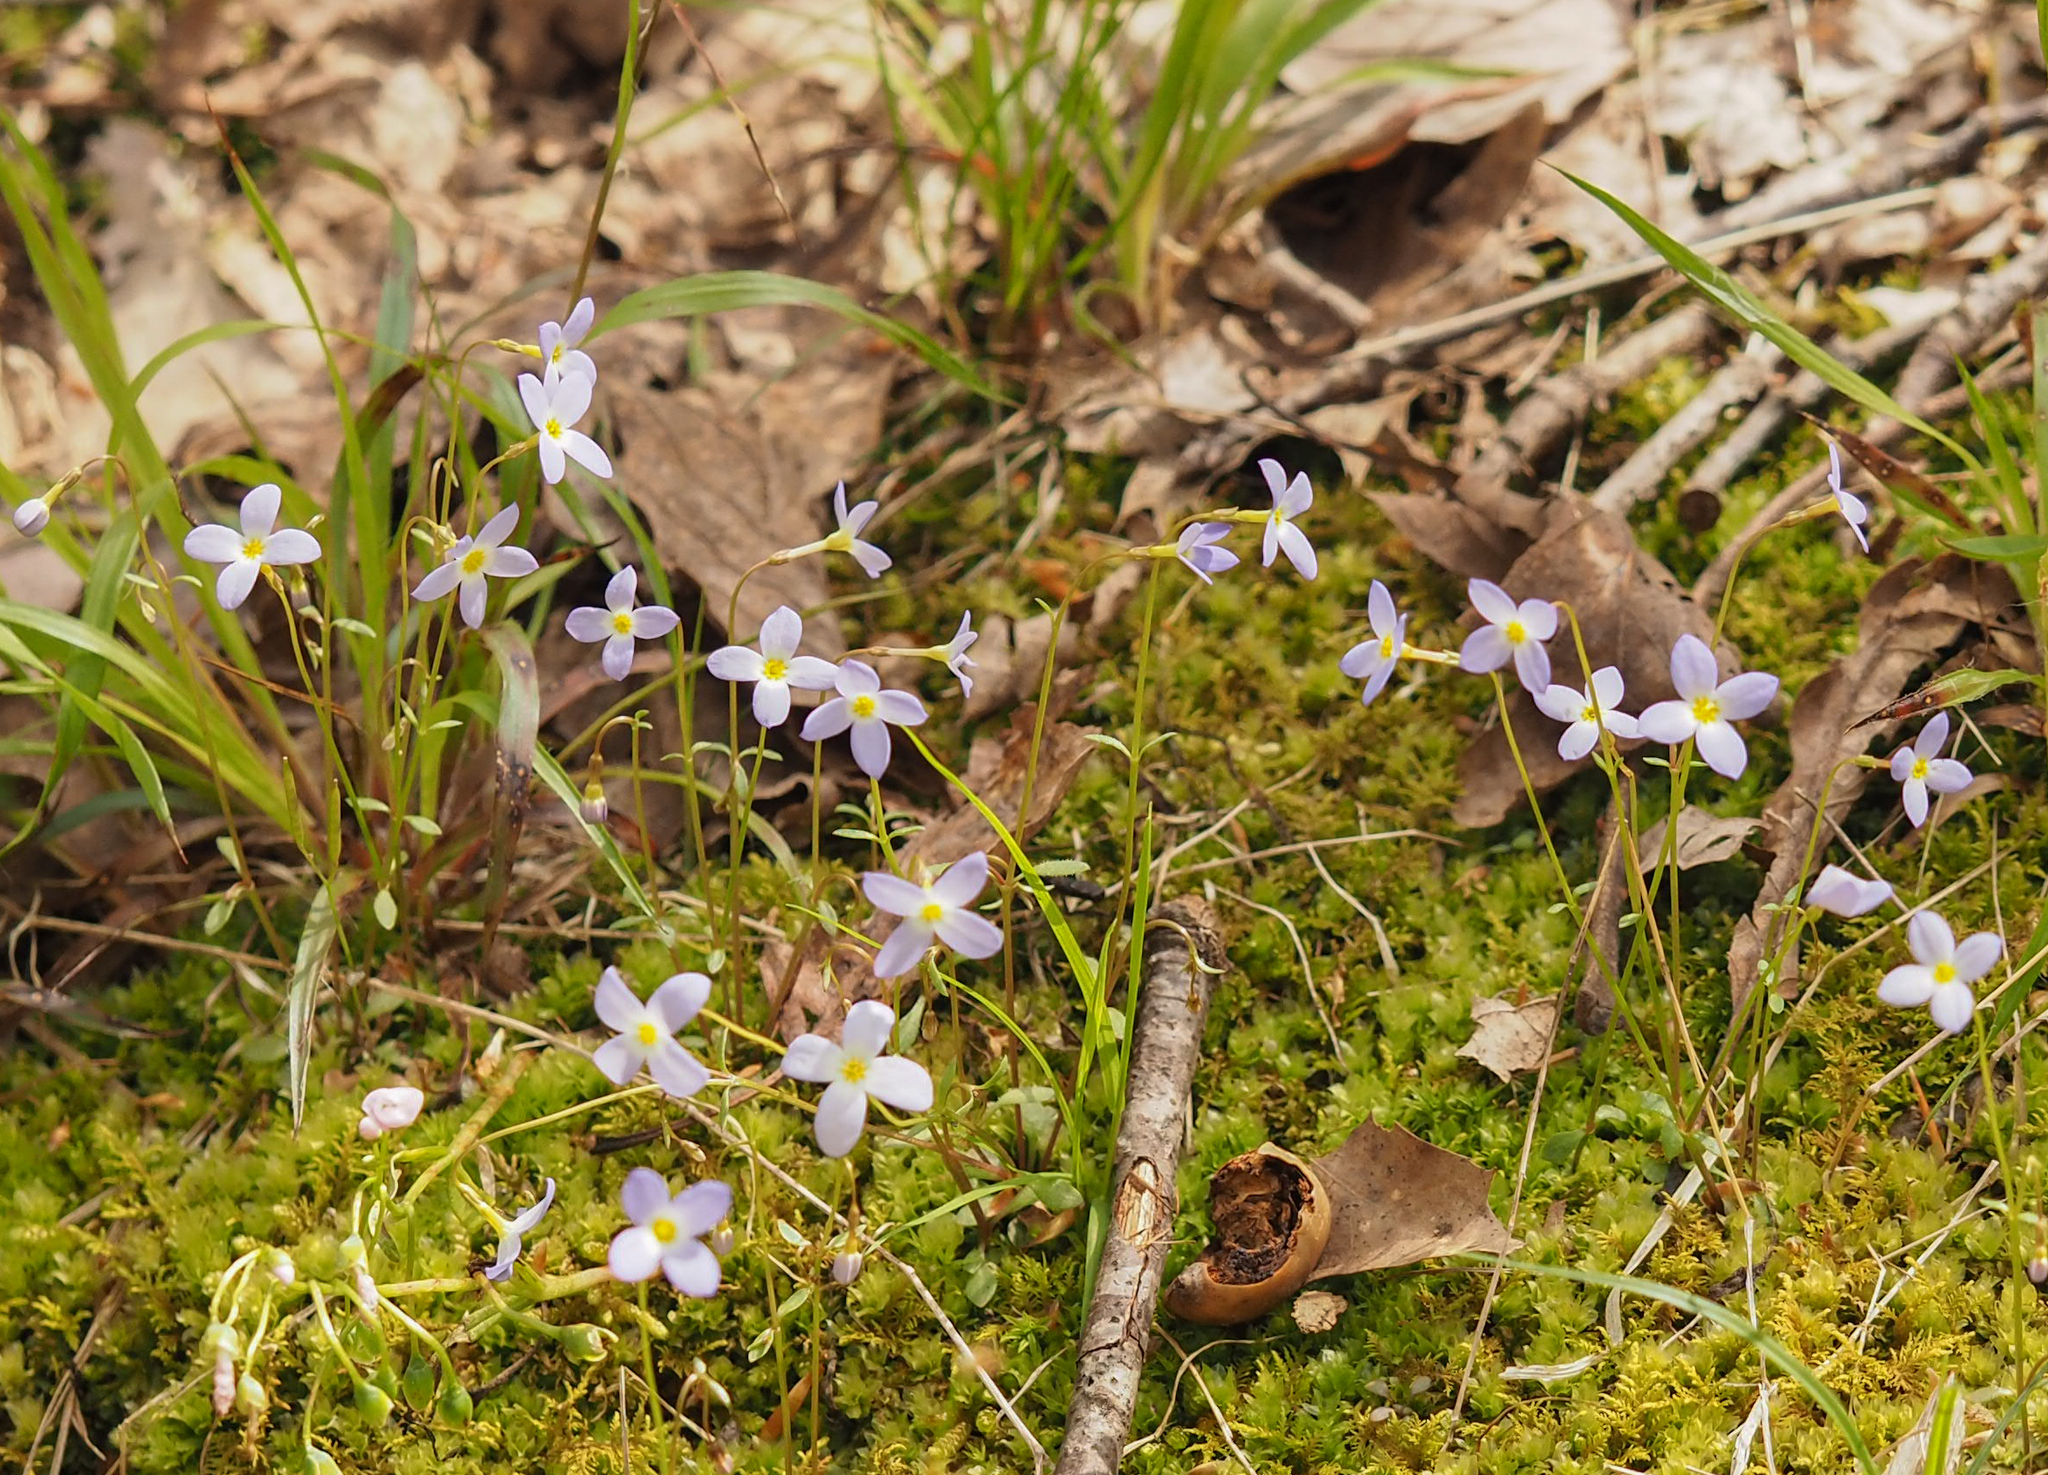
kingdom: Plantae
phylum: Tracheophyta
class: Magnoliopsida
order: Gentianales
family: Rubiaceae
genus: Houstonia
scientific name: Houstonia caerulea
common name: Bluets
